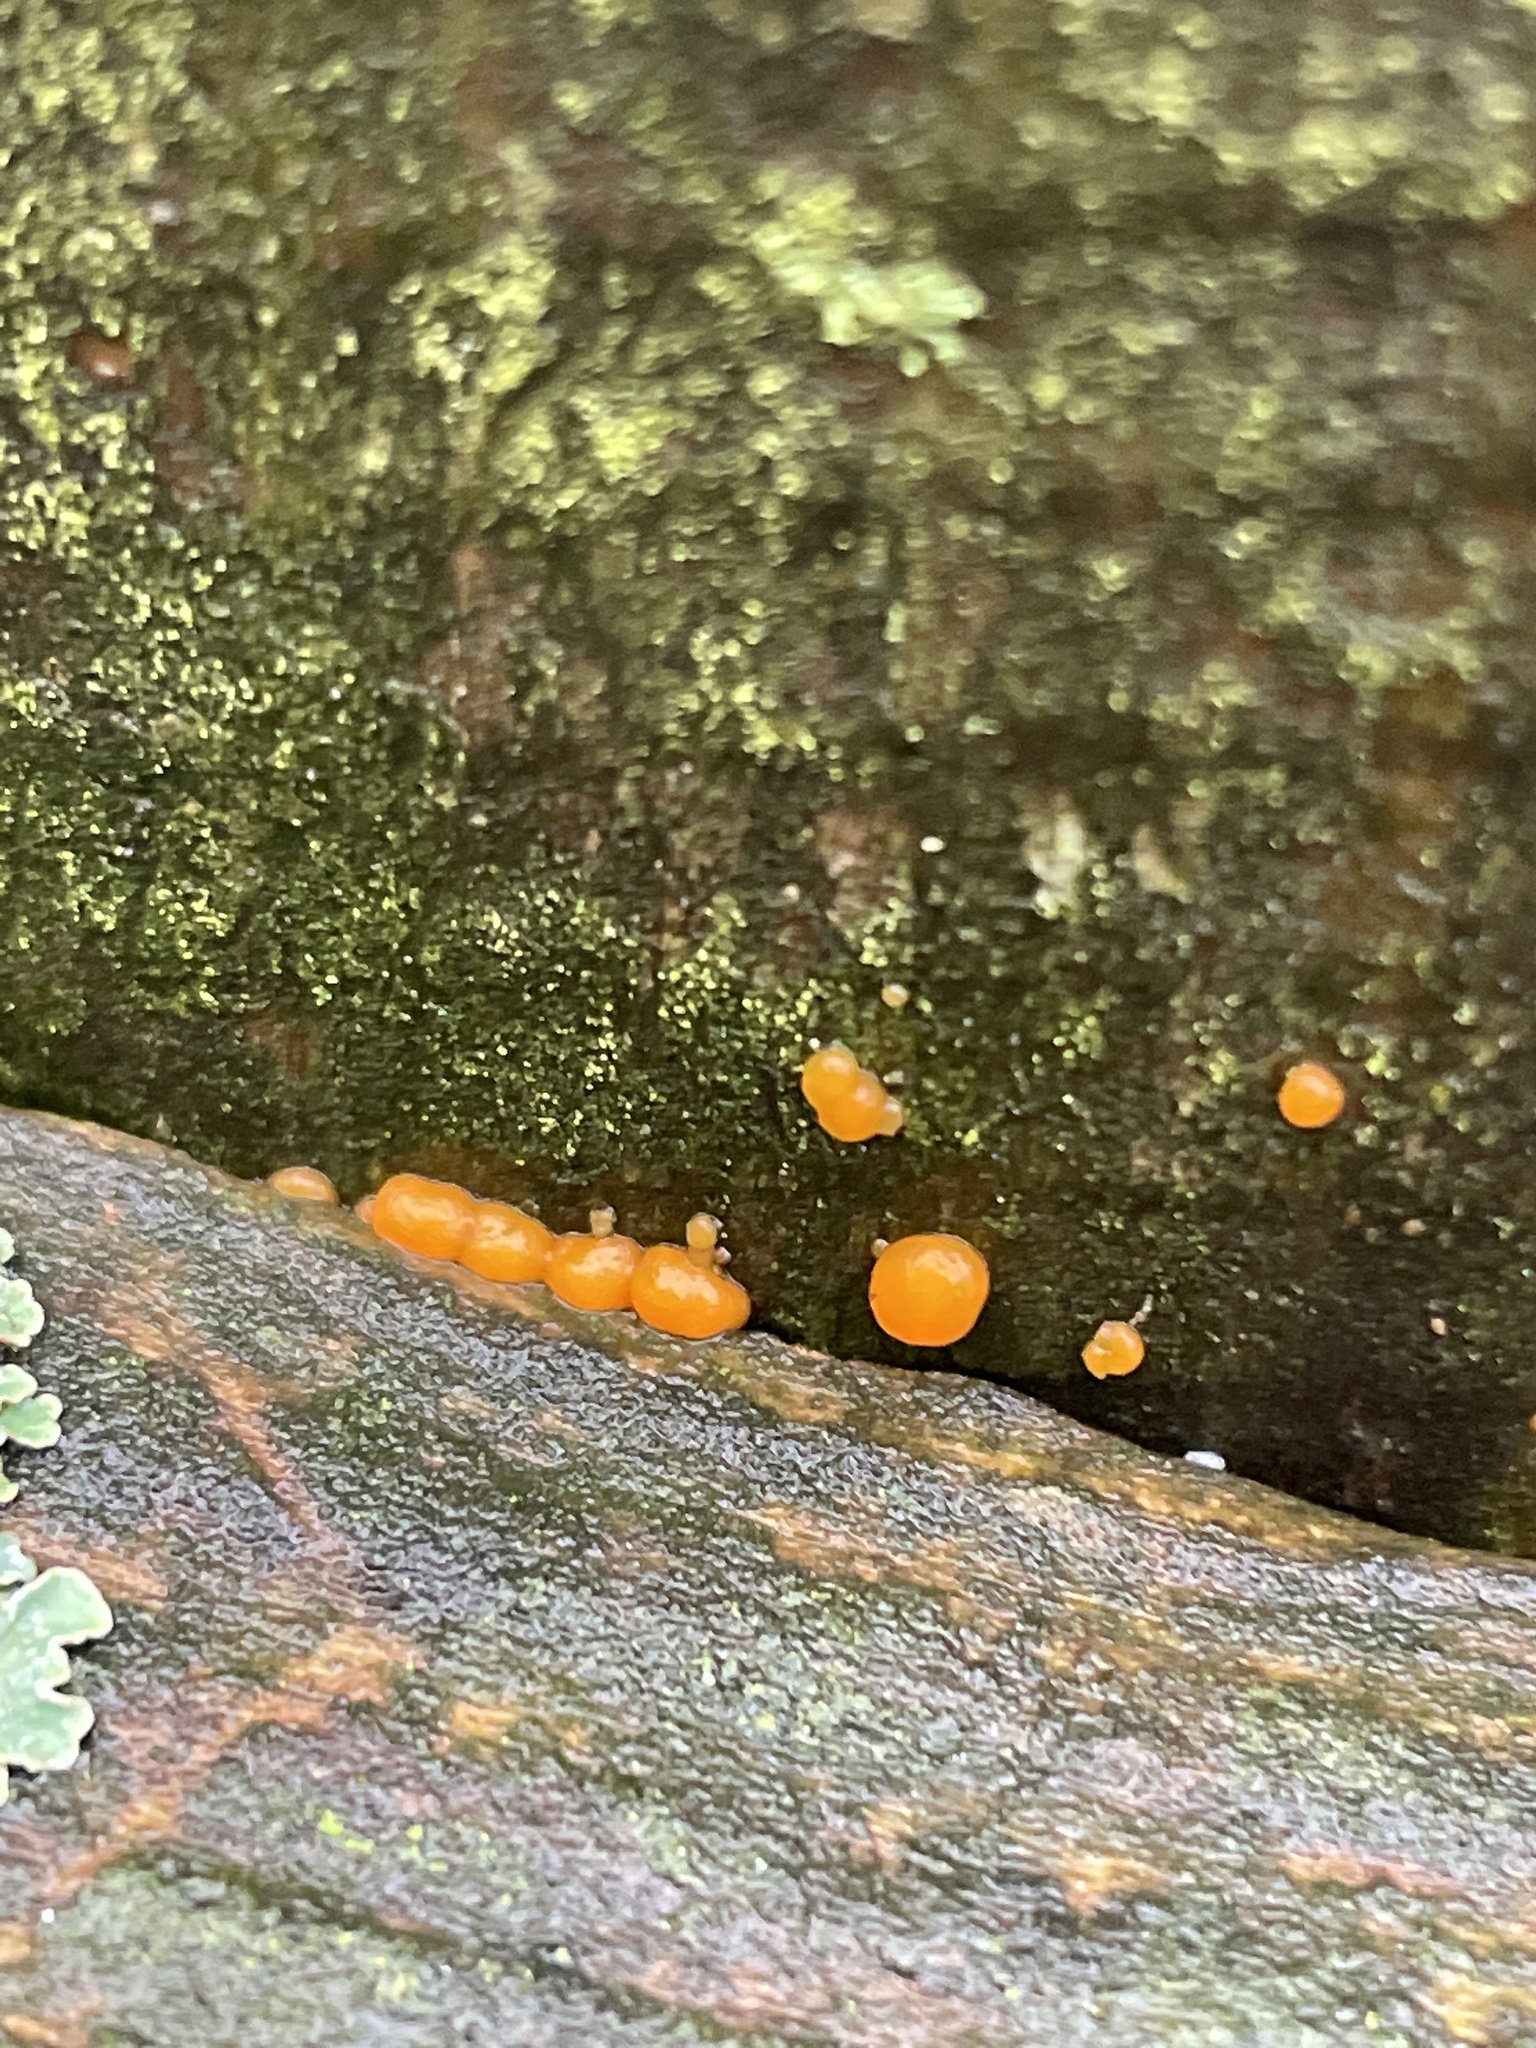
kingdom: Fungi
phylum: Basidiomycota
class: Dacrymycetes
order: Dacrymycetales
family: Dacrymycetaceae
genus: Dacrymyces
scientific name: Dacrymyces stillatus
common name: Common jelly spot
